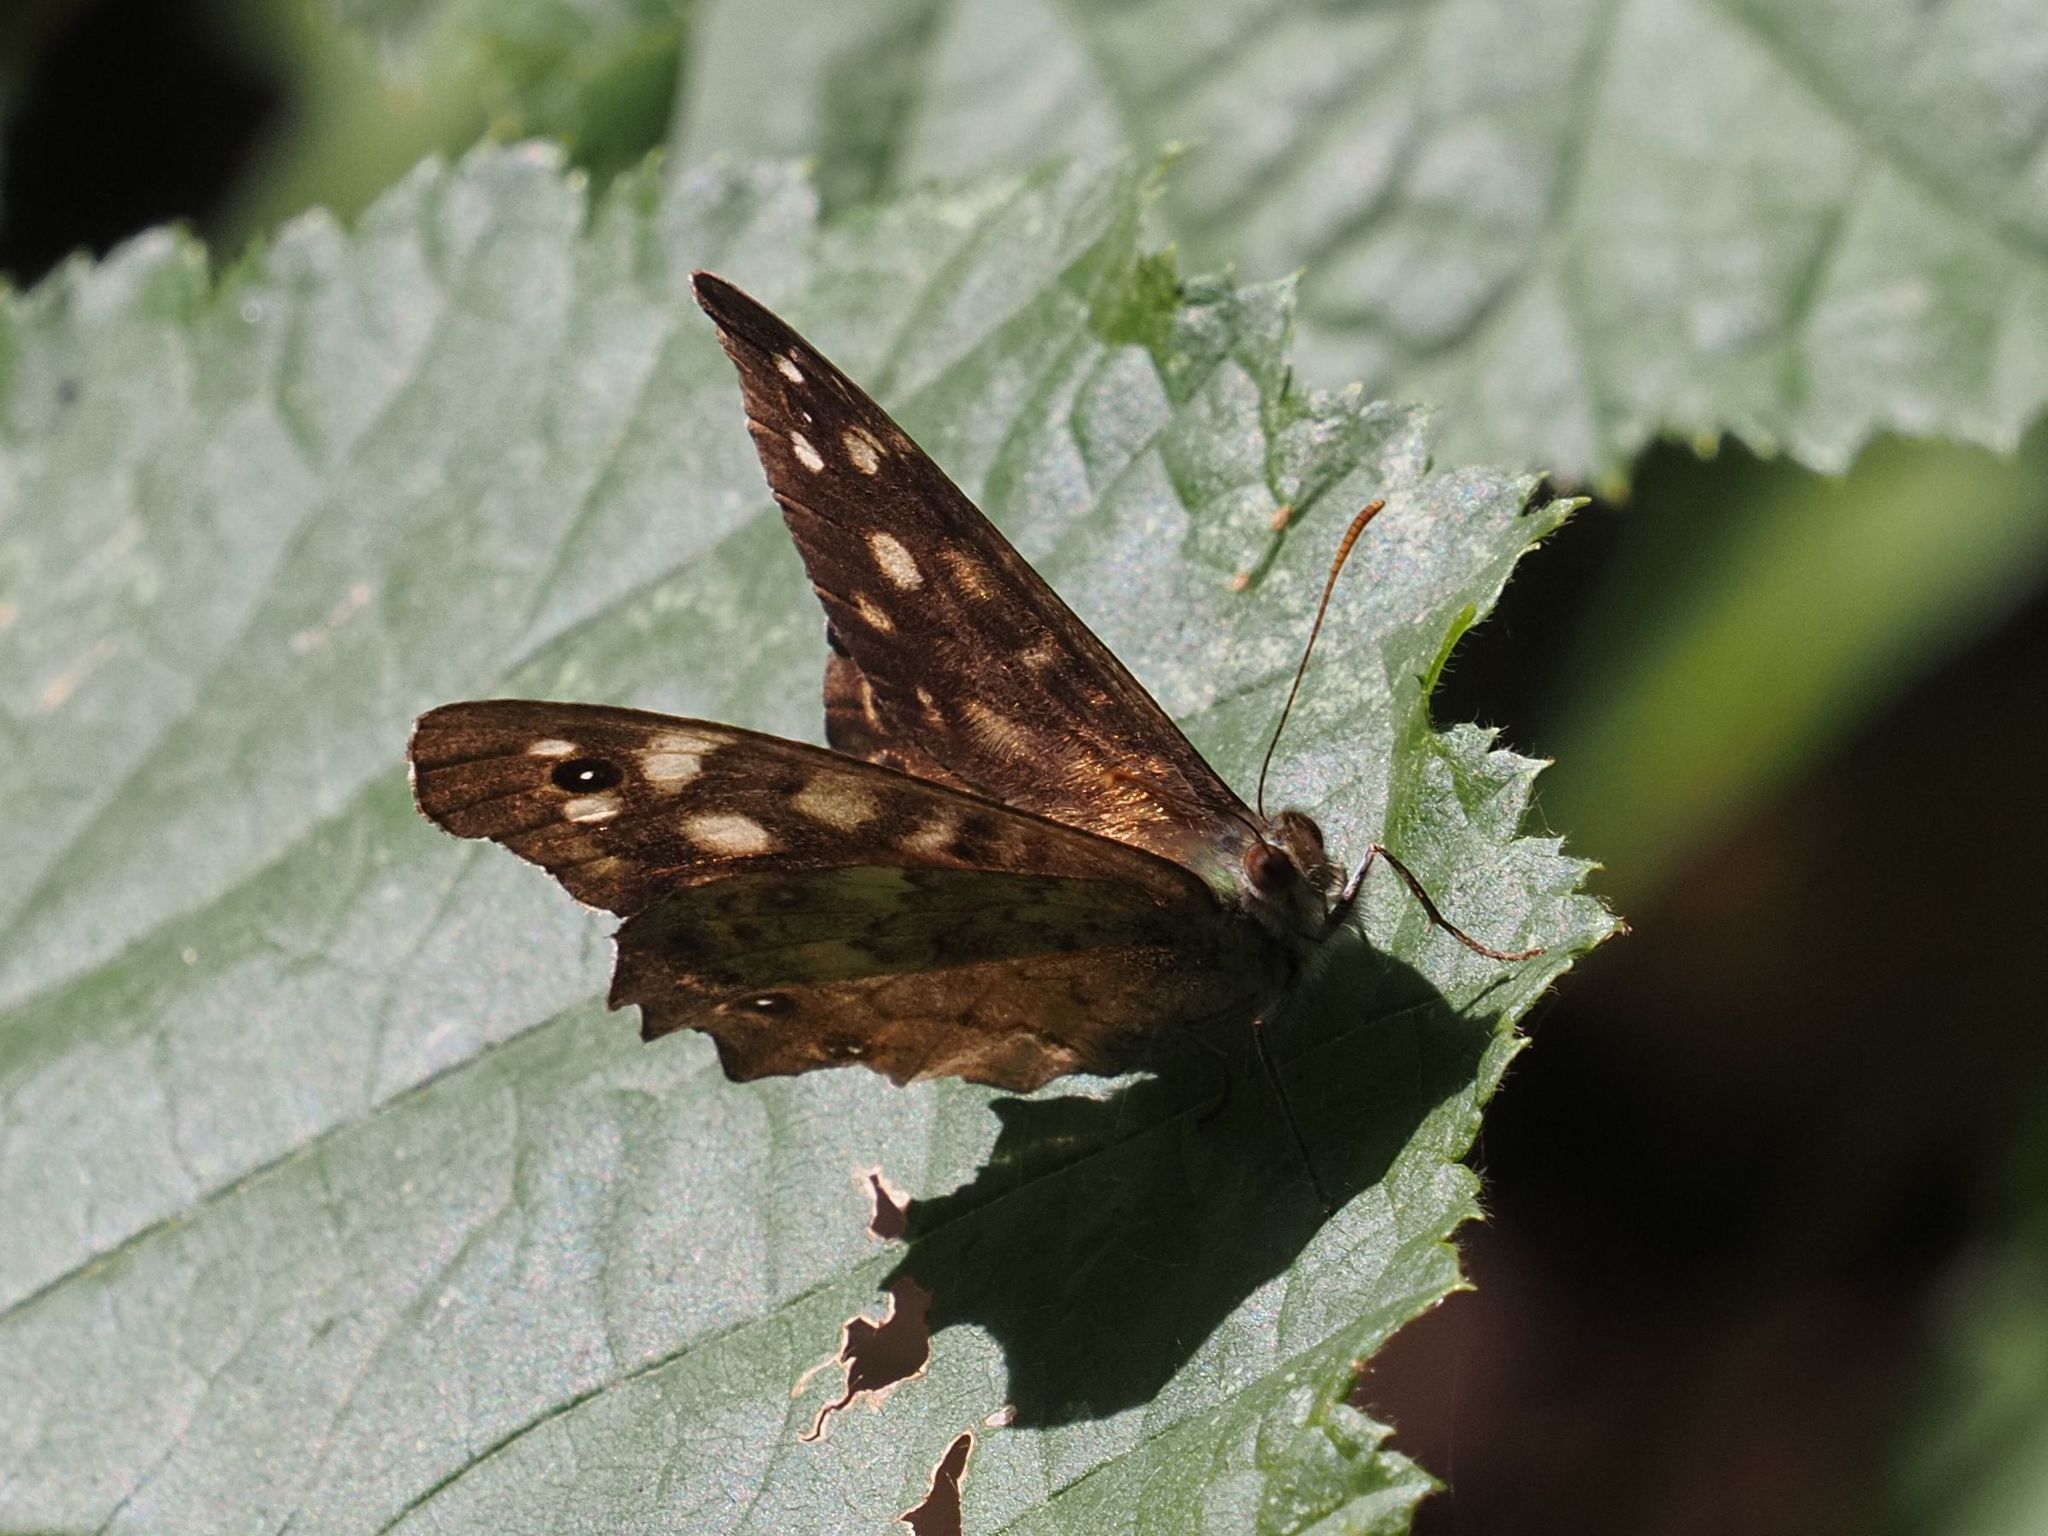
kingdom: Animalia
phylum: Arthropoda
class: Insecta
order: Lepidoptera
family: Nymphalidae
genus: Pararge
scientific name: Pararge aegeria
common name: Speckled wood
